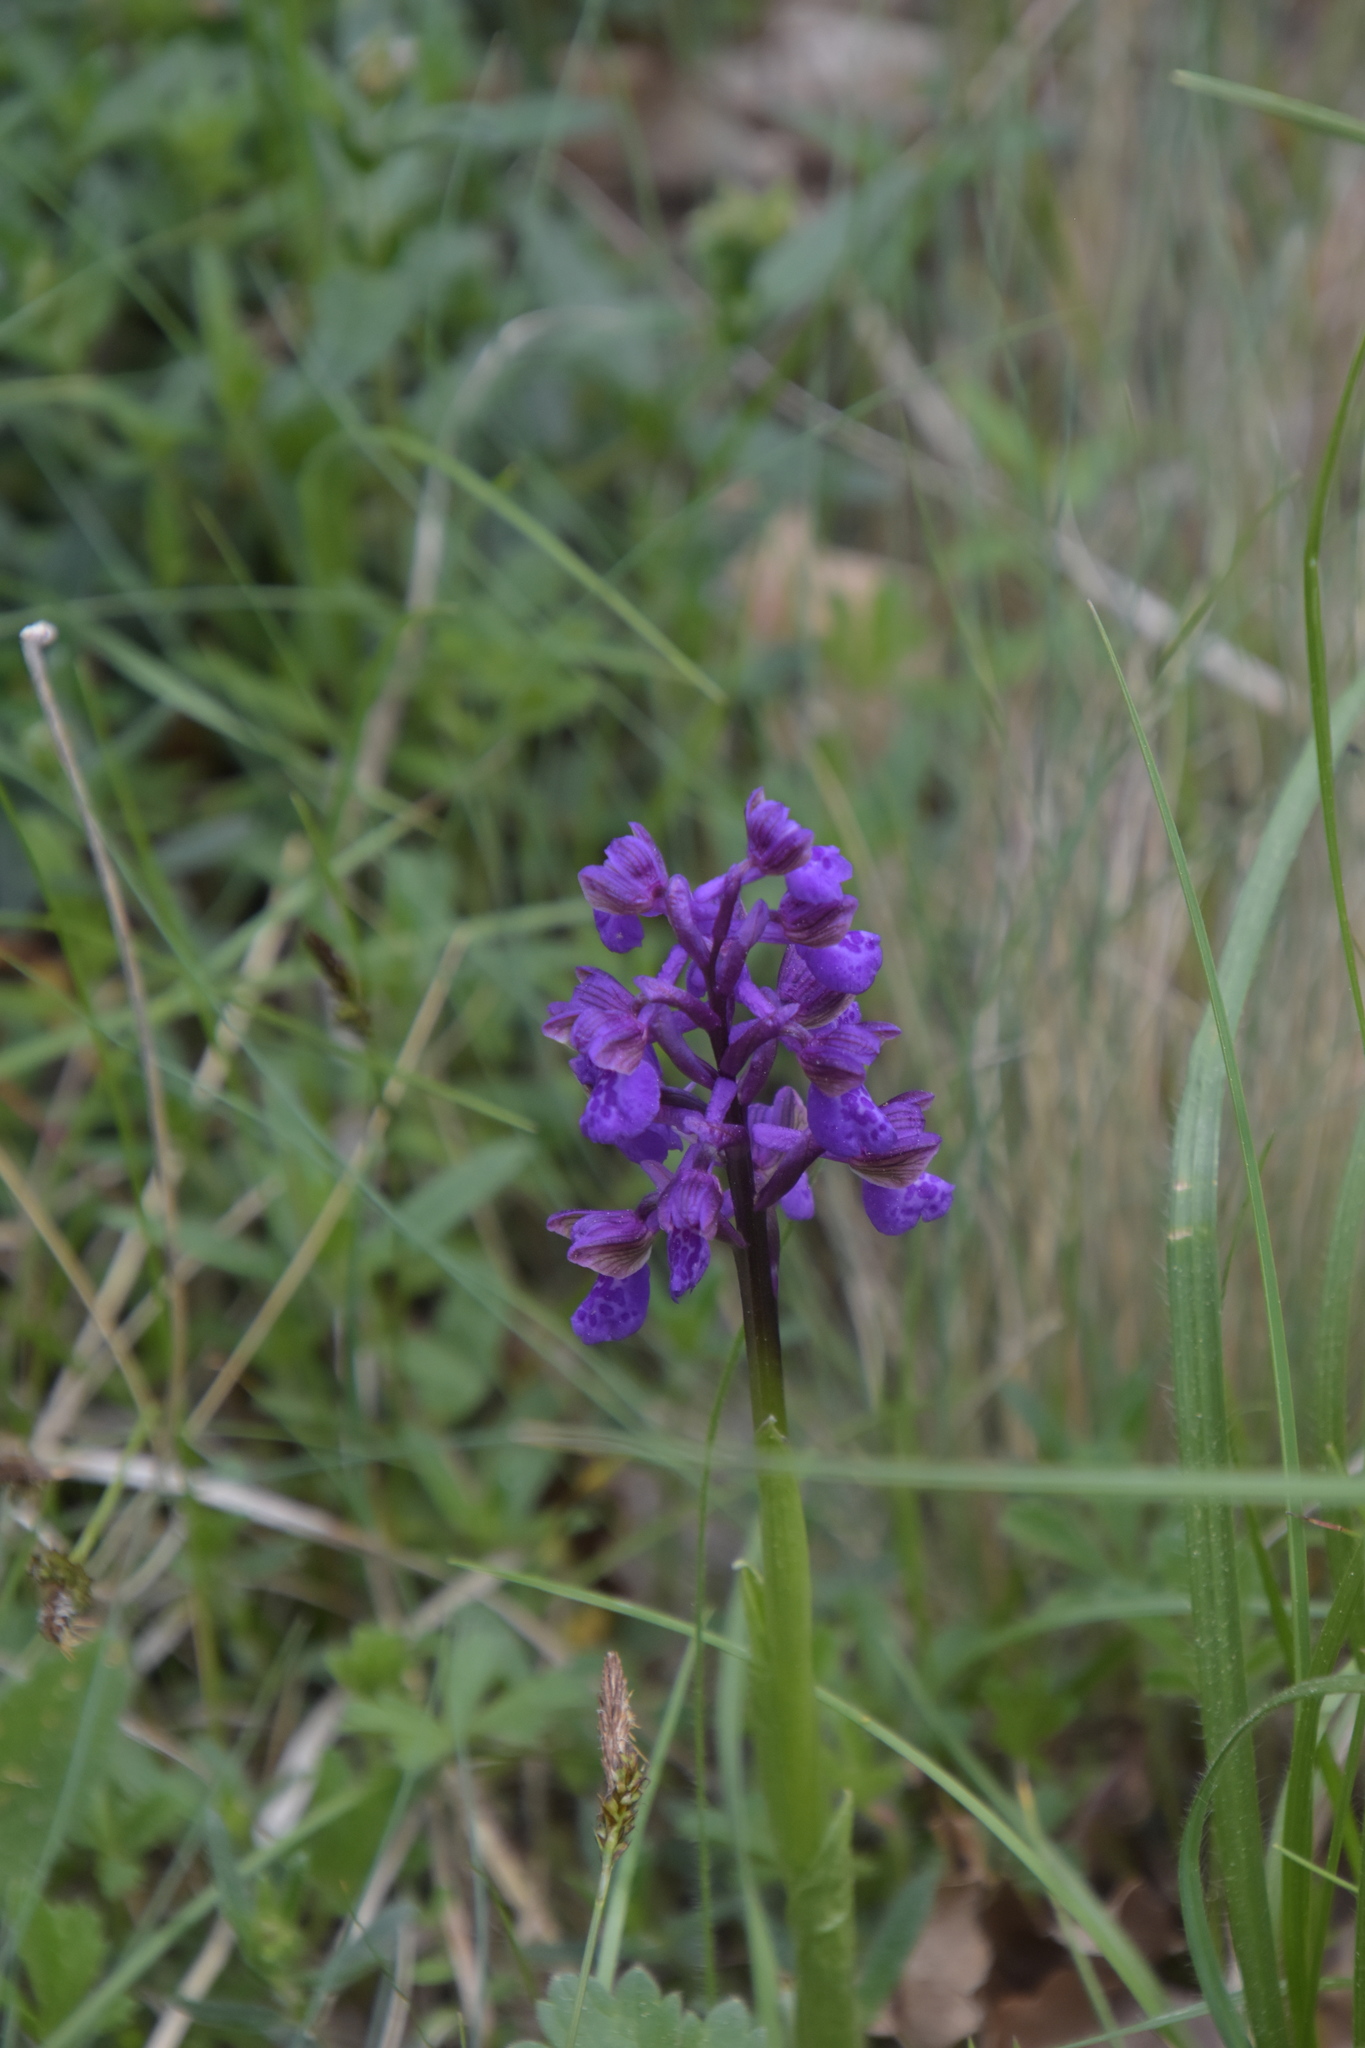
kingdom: Plantae
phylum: Tracheophyta
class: Liliopsida
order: Asparagales
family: Orchidaceae
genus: Anacamptis
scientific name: Anacamptis morio
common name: Green-winged orchid
